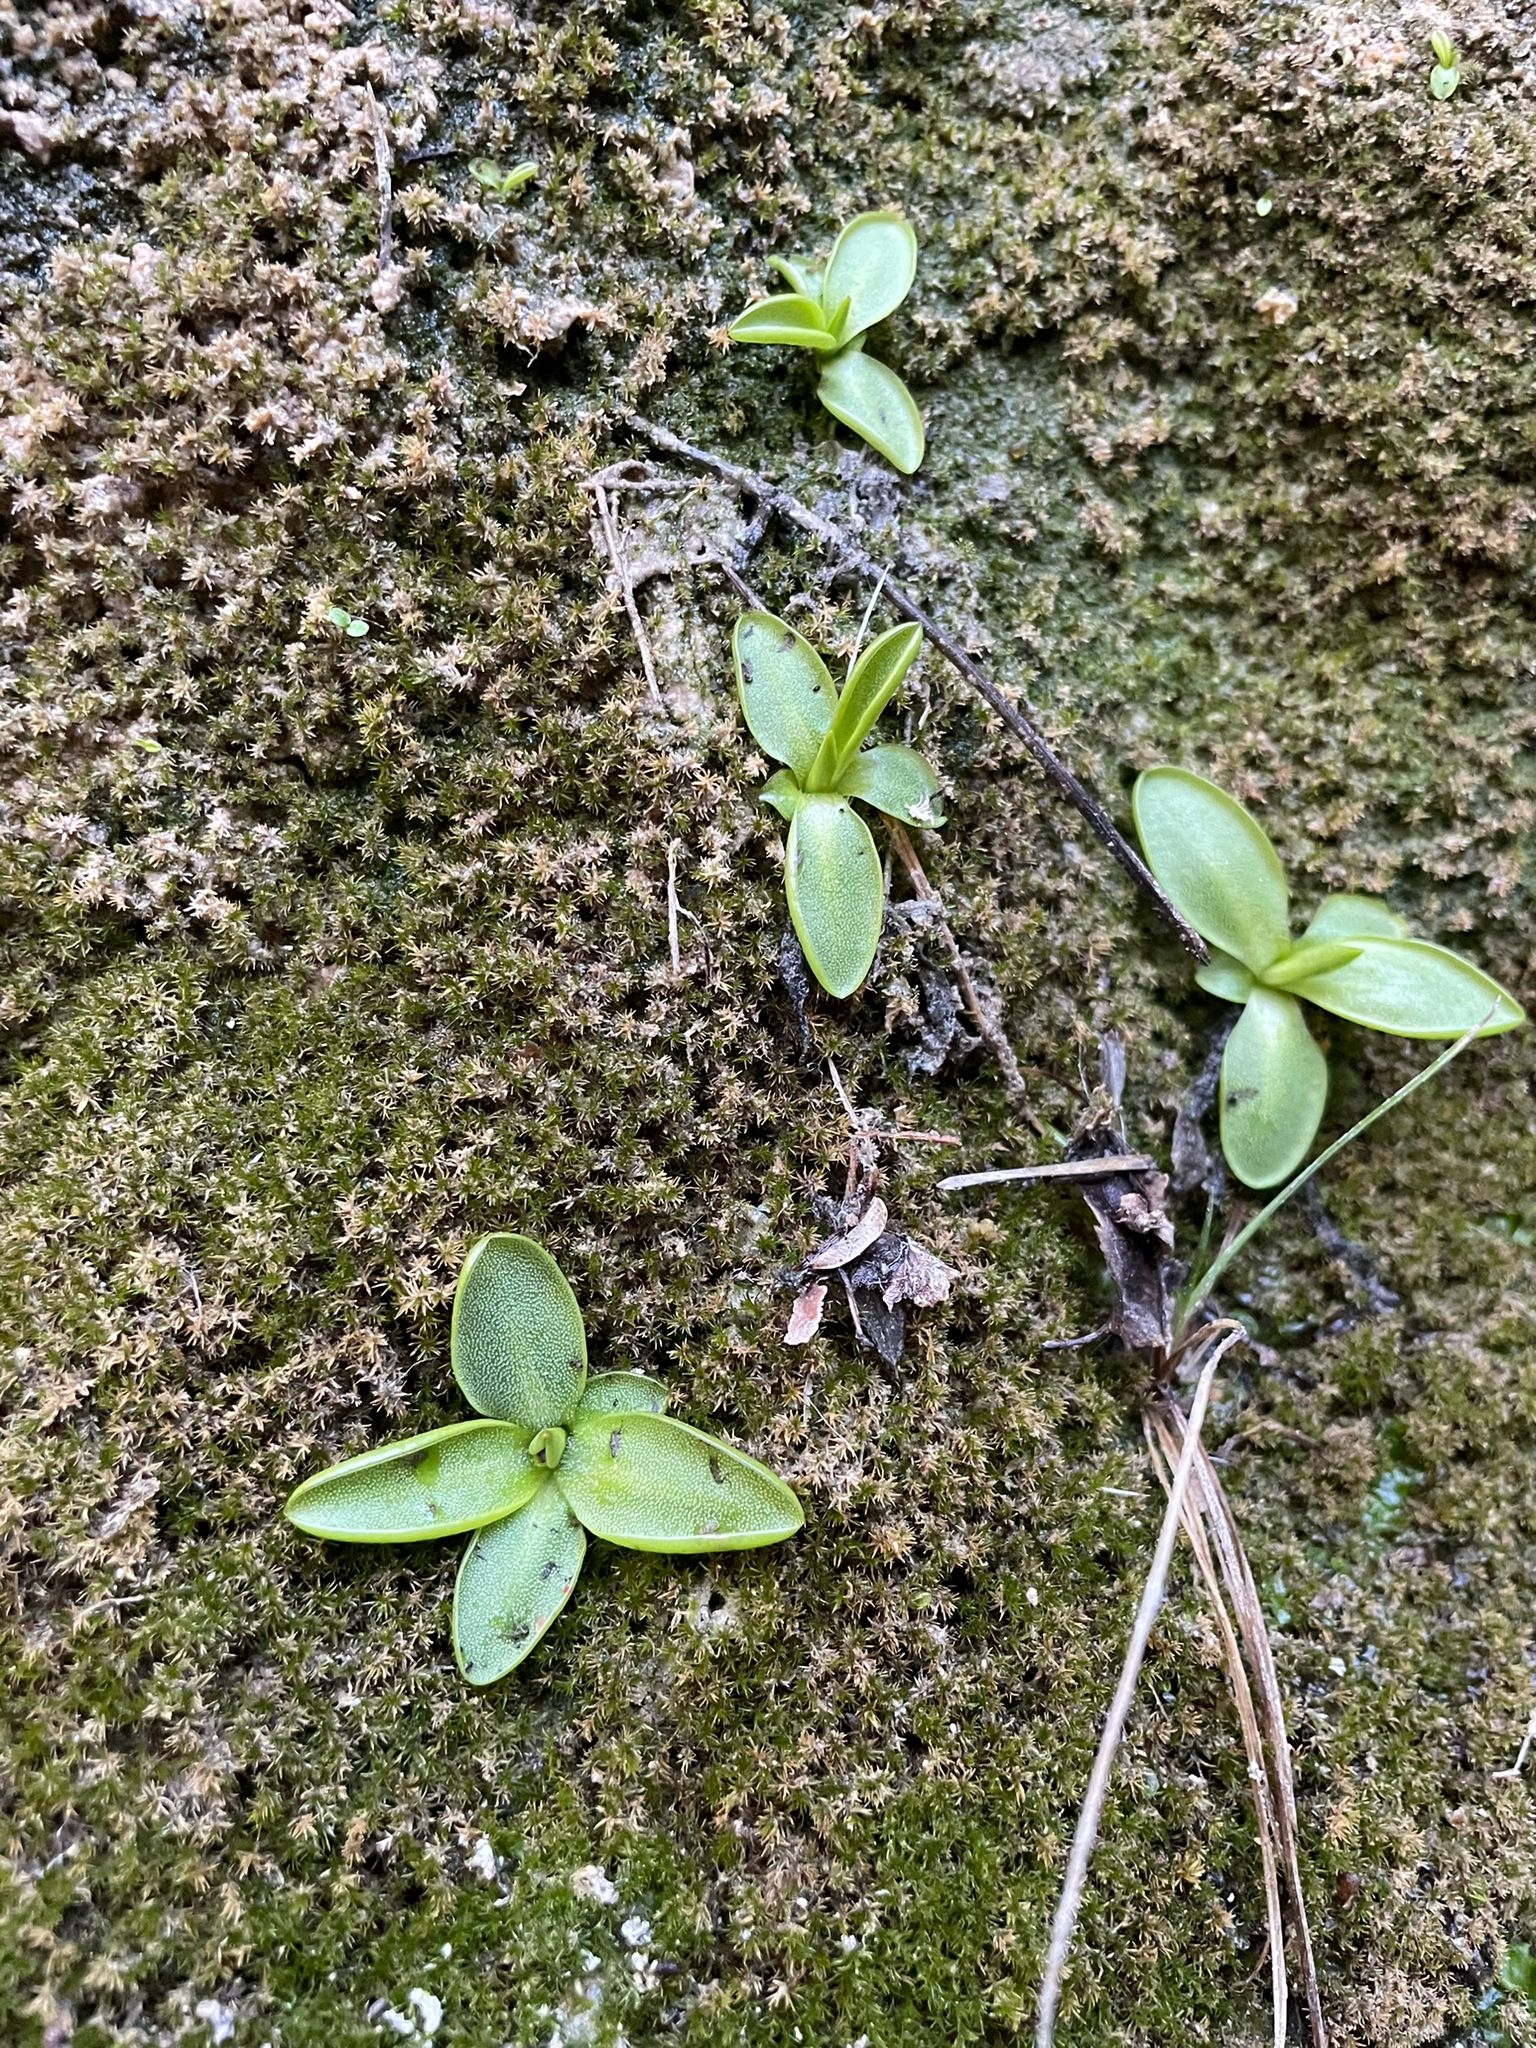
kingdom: Plantae
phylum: Tracheophyta
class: Magnoliopsida
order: Lamiales
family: Lentibulariaceae
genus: Pinguicula
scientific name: Pinguicula casperiana
